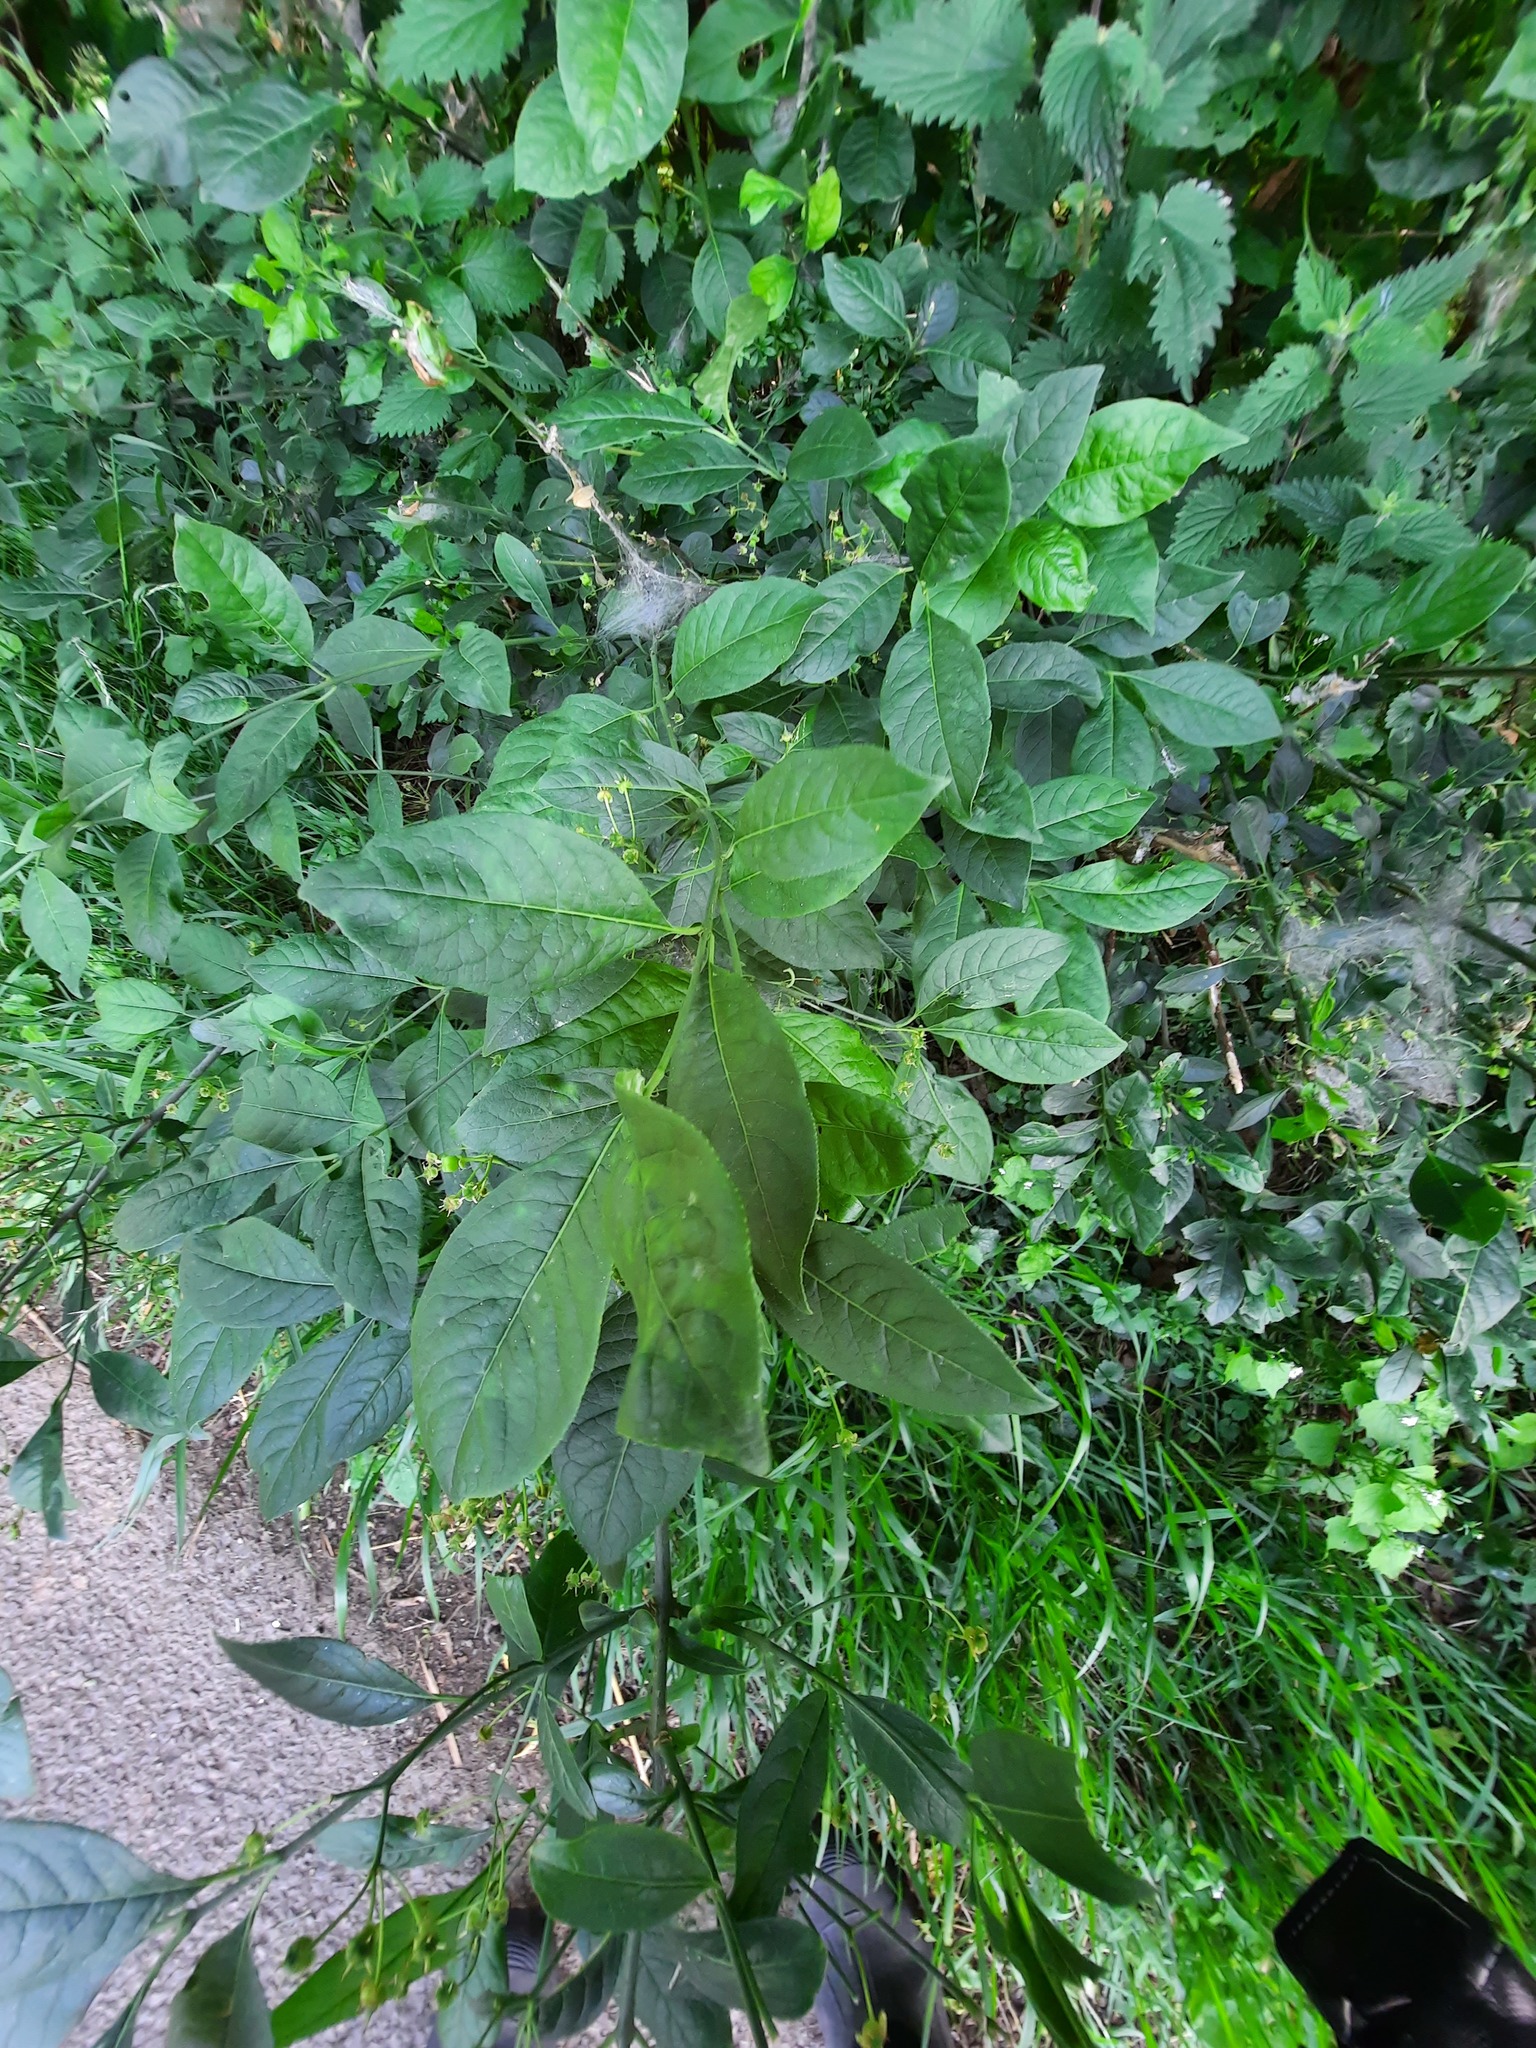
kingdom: Plantae
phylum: Tracheophyta
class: Magnoliopsida
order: Lamiales
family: Oleaceae
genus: Fraxinus
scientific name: Fraxinus excelsior
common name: European ash
